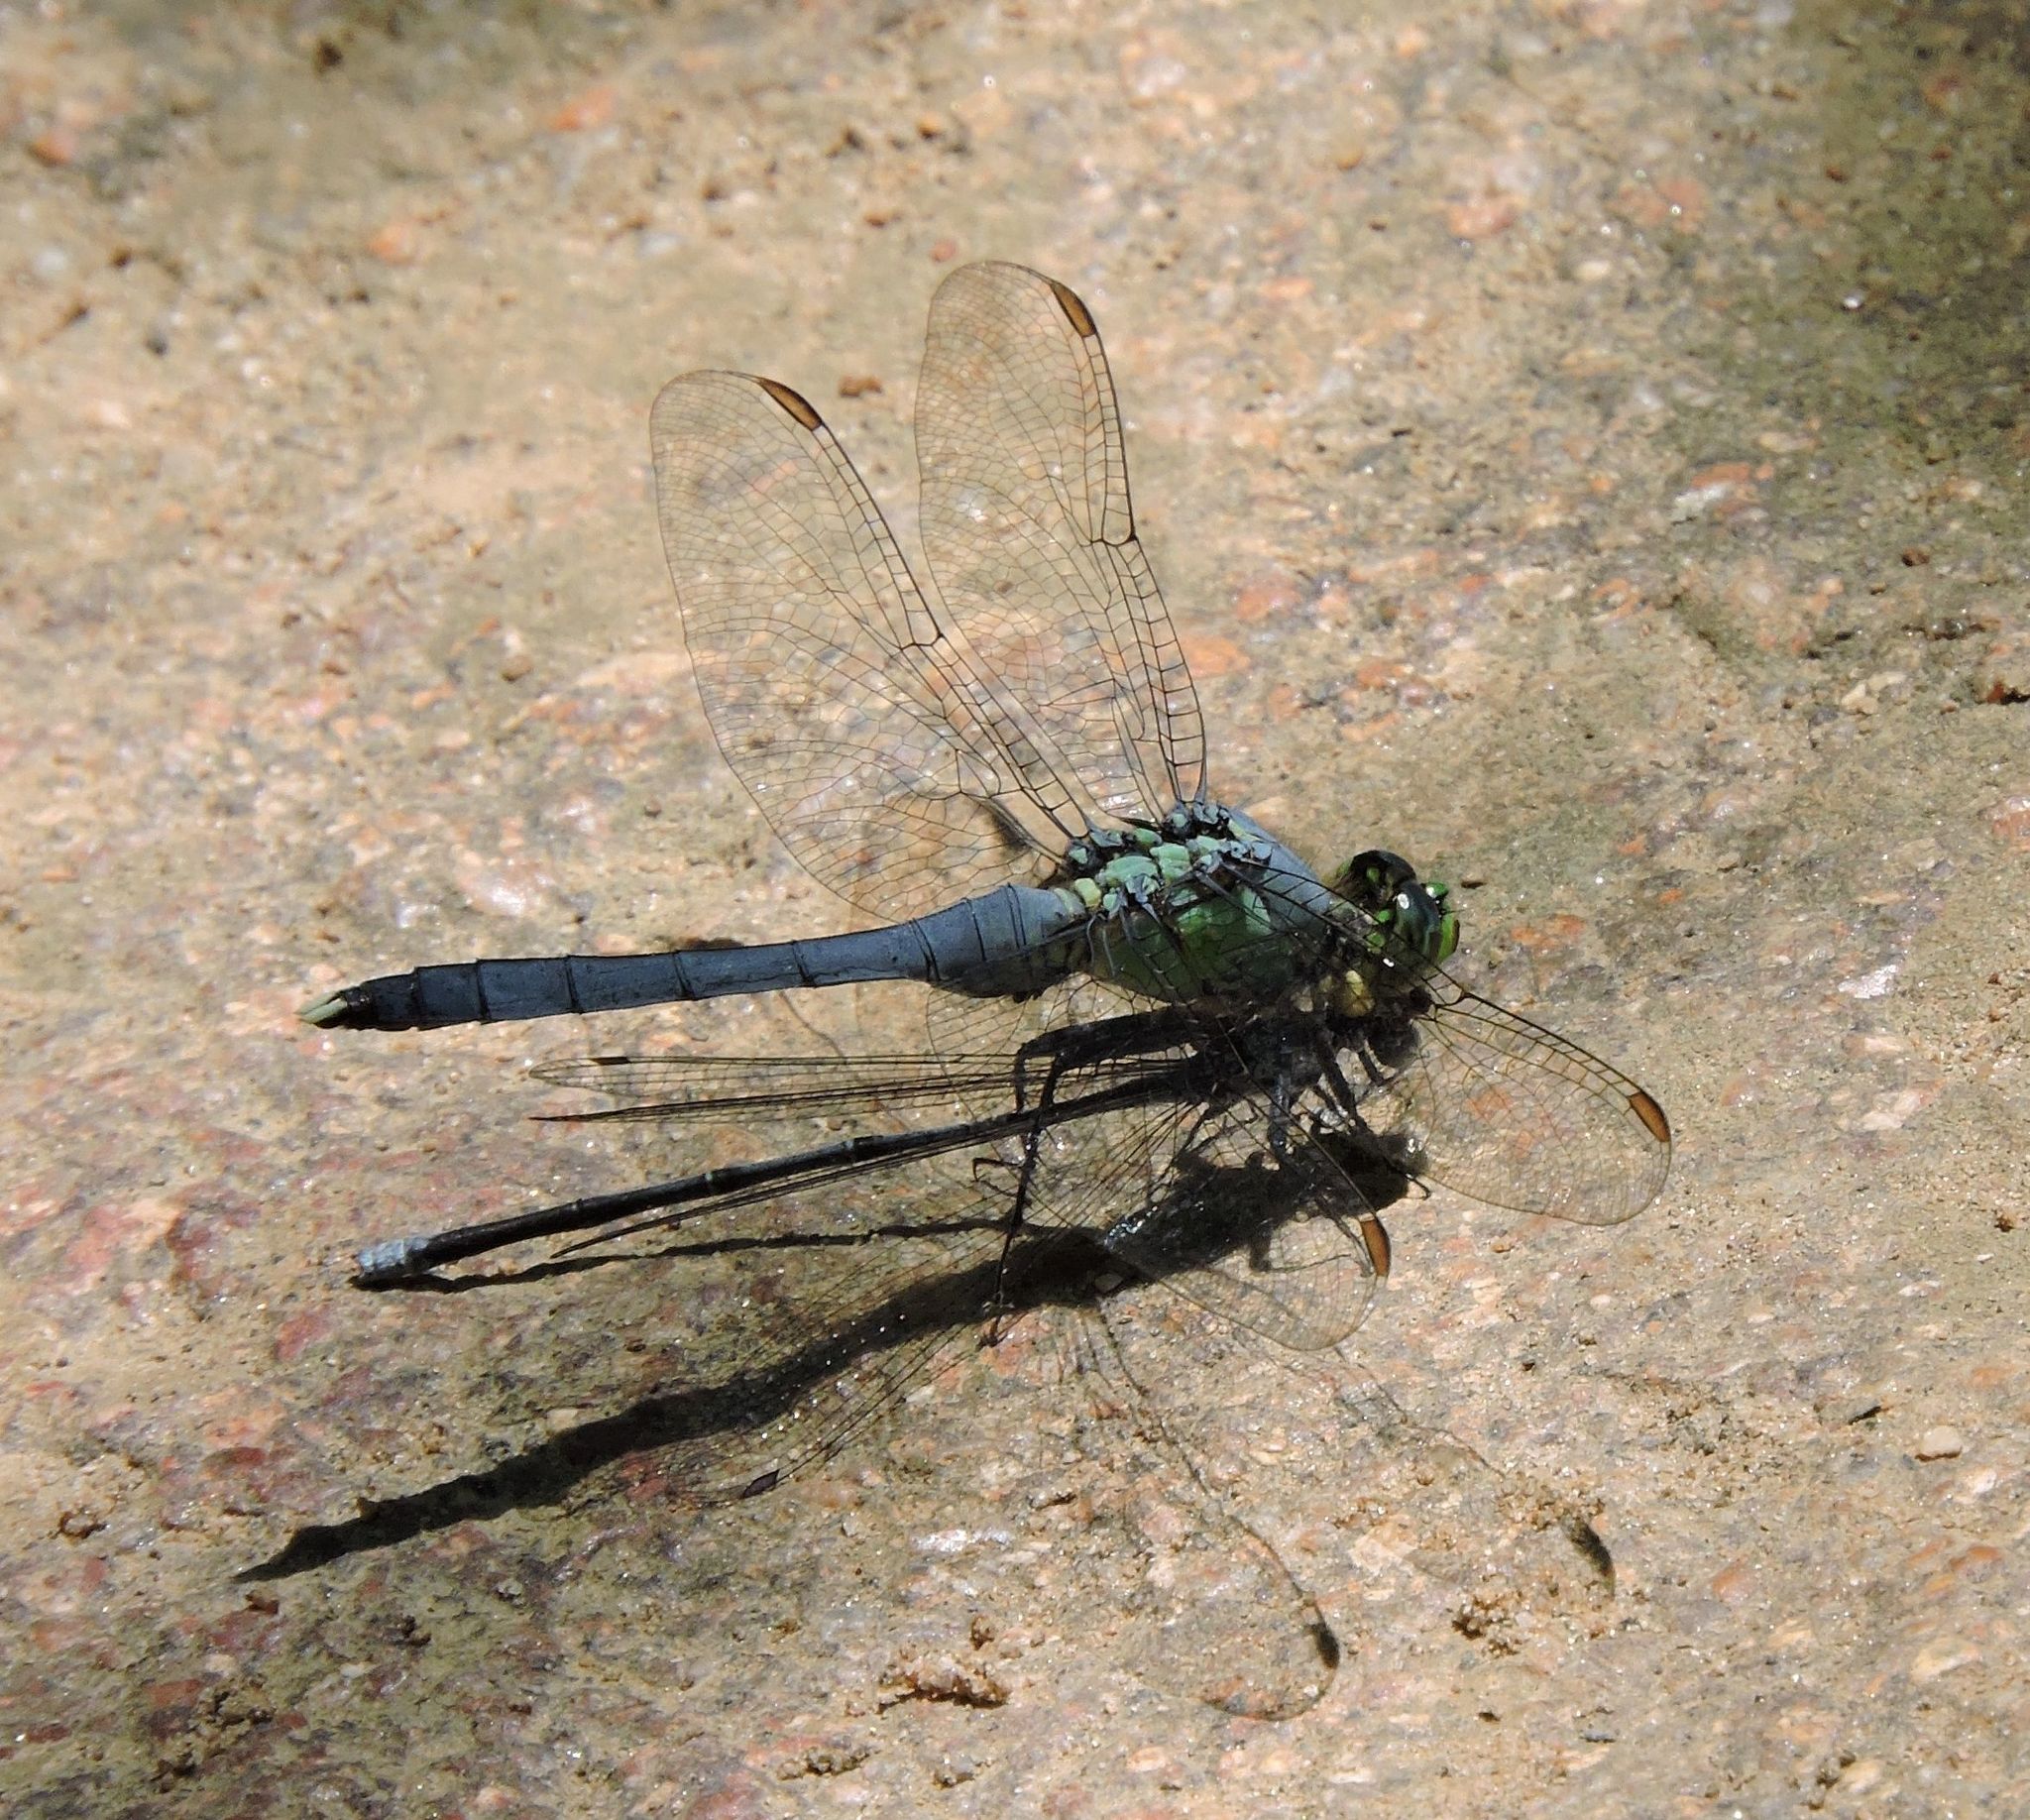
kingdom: Animalia
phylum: Arthropoda
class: Insecta
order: Odonata
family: Libellulidae
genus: Erythemis
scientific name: Erythemis simplicicollis
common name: Eastern pondhawk
